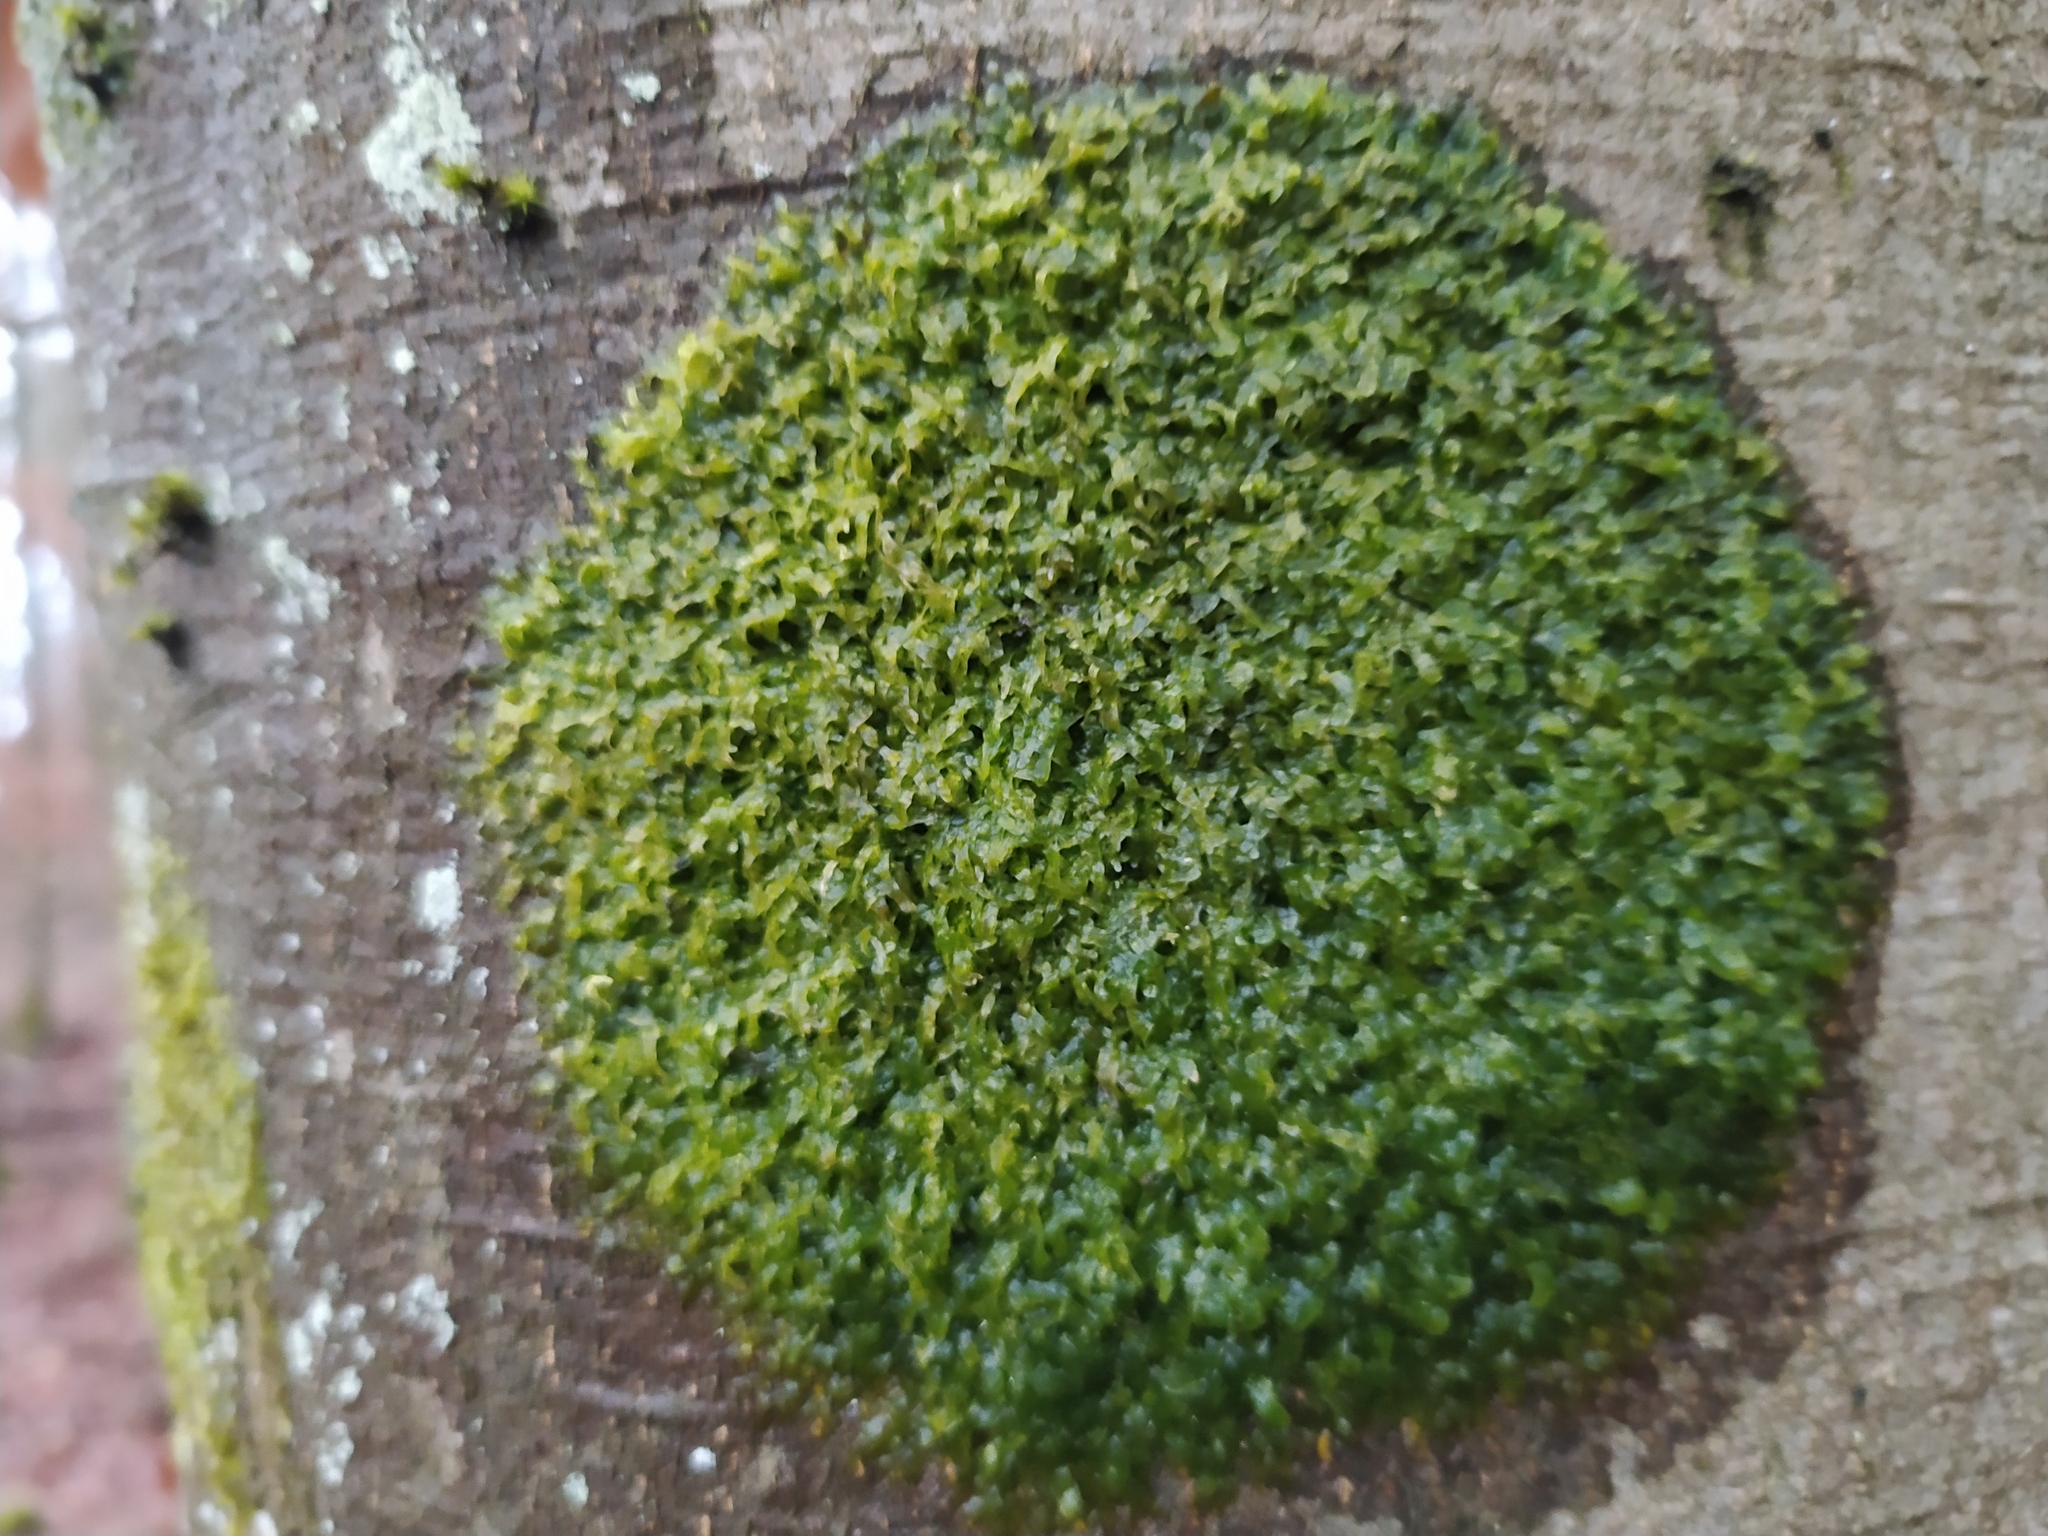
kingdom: Plantae
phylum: Marchantiophyta
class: Jungermanniopsida
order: Metzgeriales
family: Metzgeriaceae
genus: Metzgeria
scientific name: Metzgeria furcata
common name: Forked veilwort
